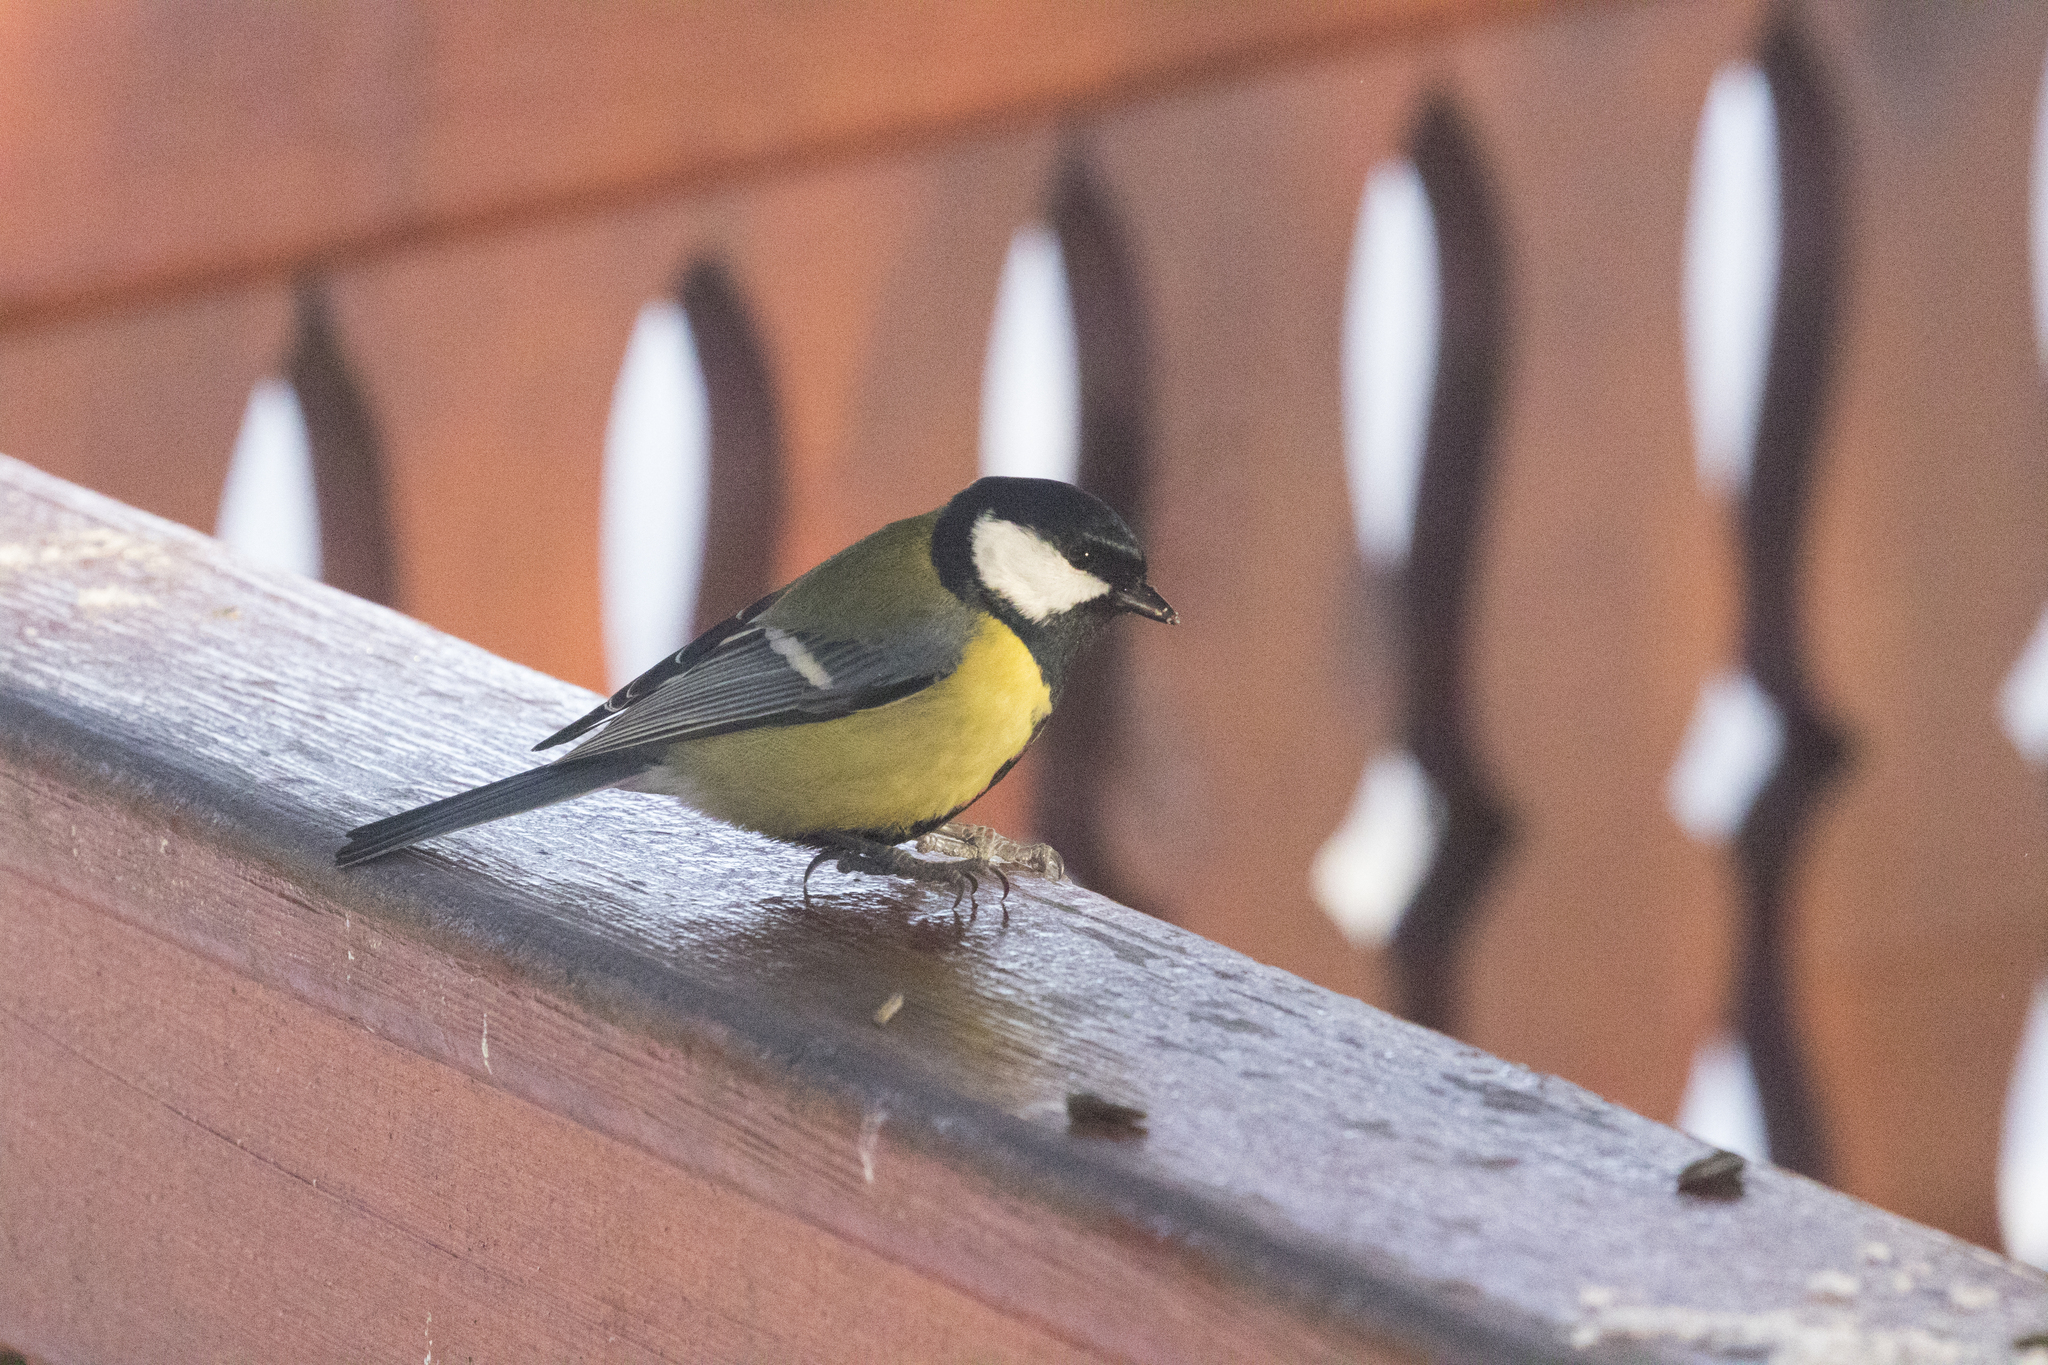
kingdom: Animalia
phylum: Chordata
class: Aves
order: Passeriformes
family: Paridae
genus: Parus
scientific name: Parus major
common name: Great tit
